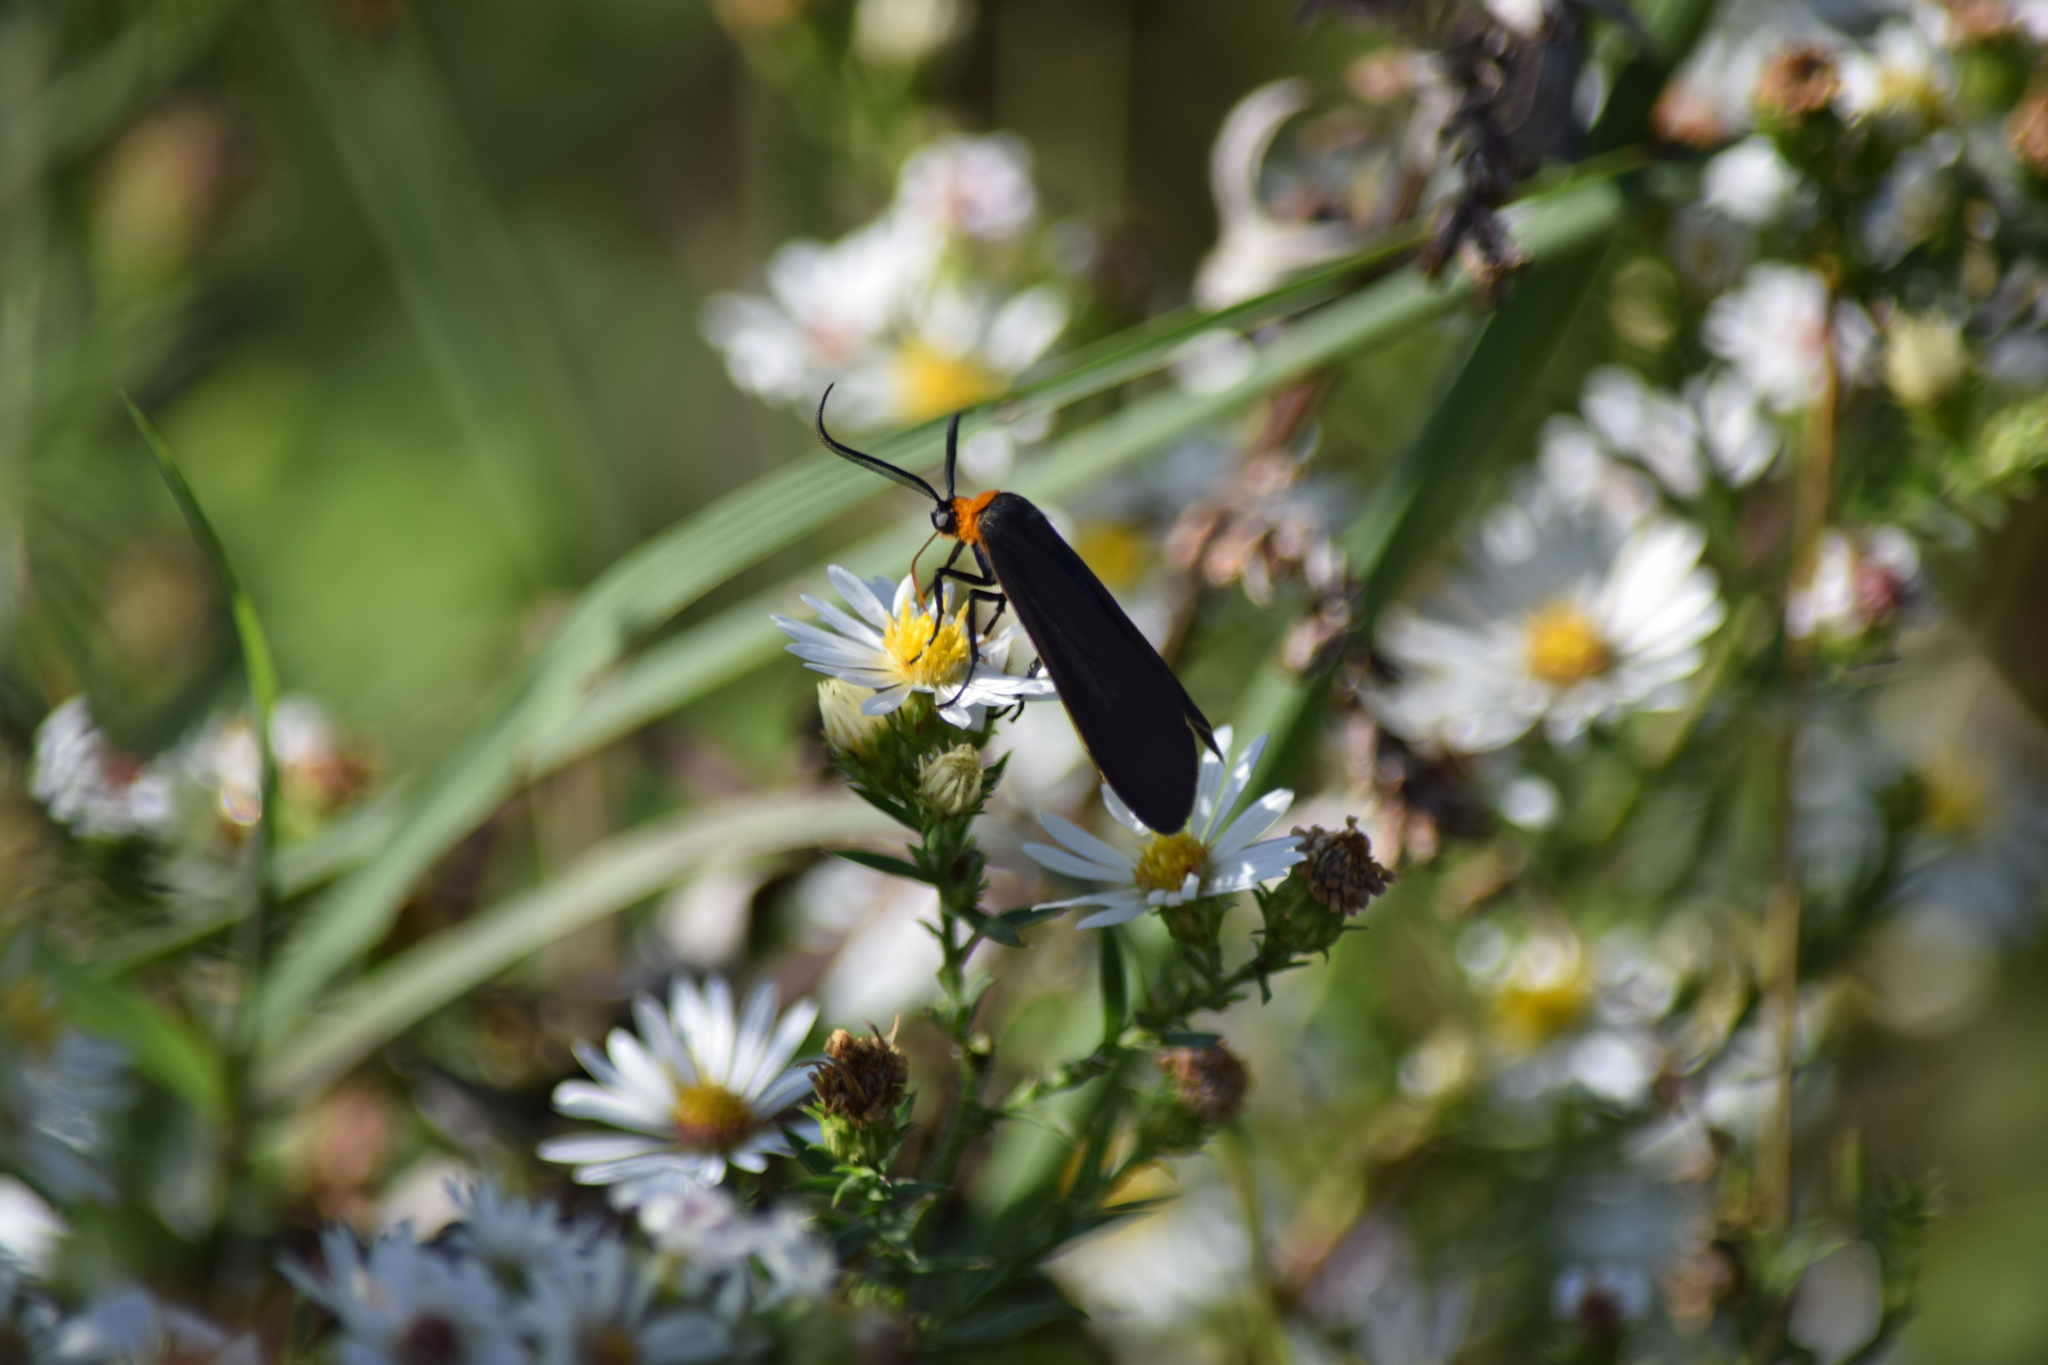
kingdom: Animalia
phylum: Arthropoda
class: Insecta
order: Lepidoptera
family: Erebidae
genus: Cisseps
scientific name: Cisseps fulvicollis
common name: Yellow-collared scape moth
